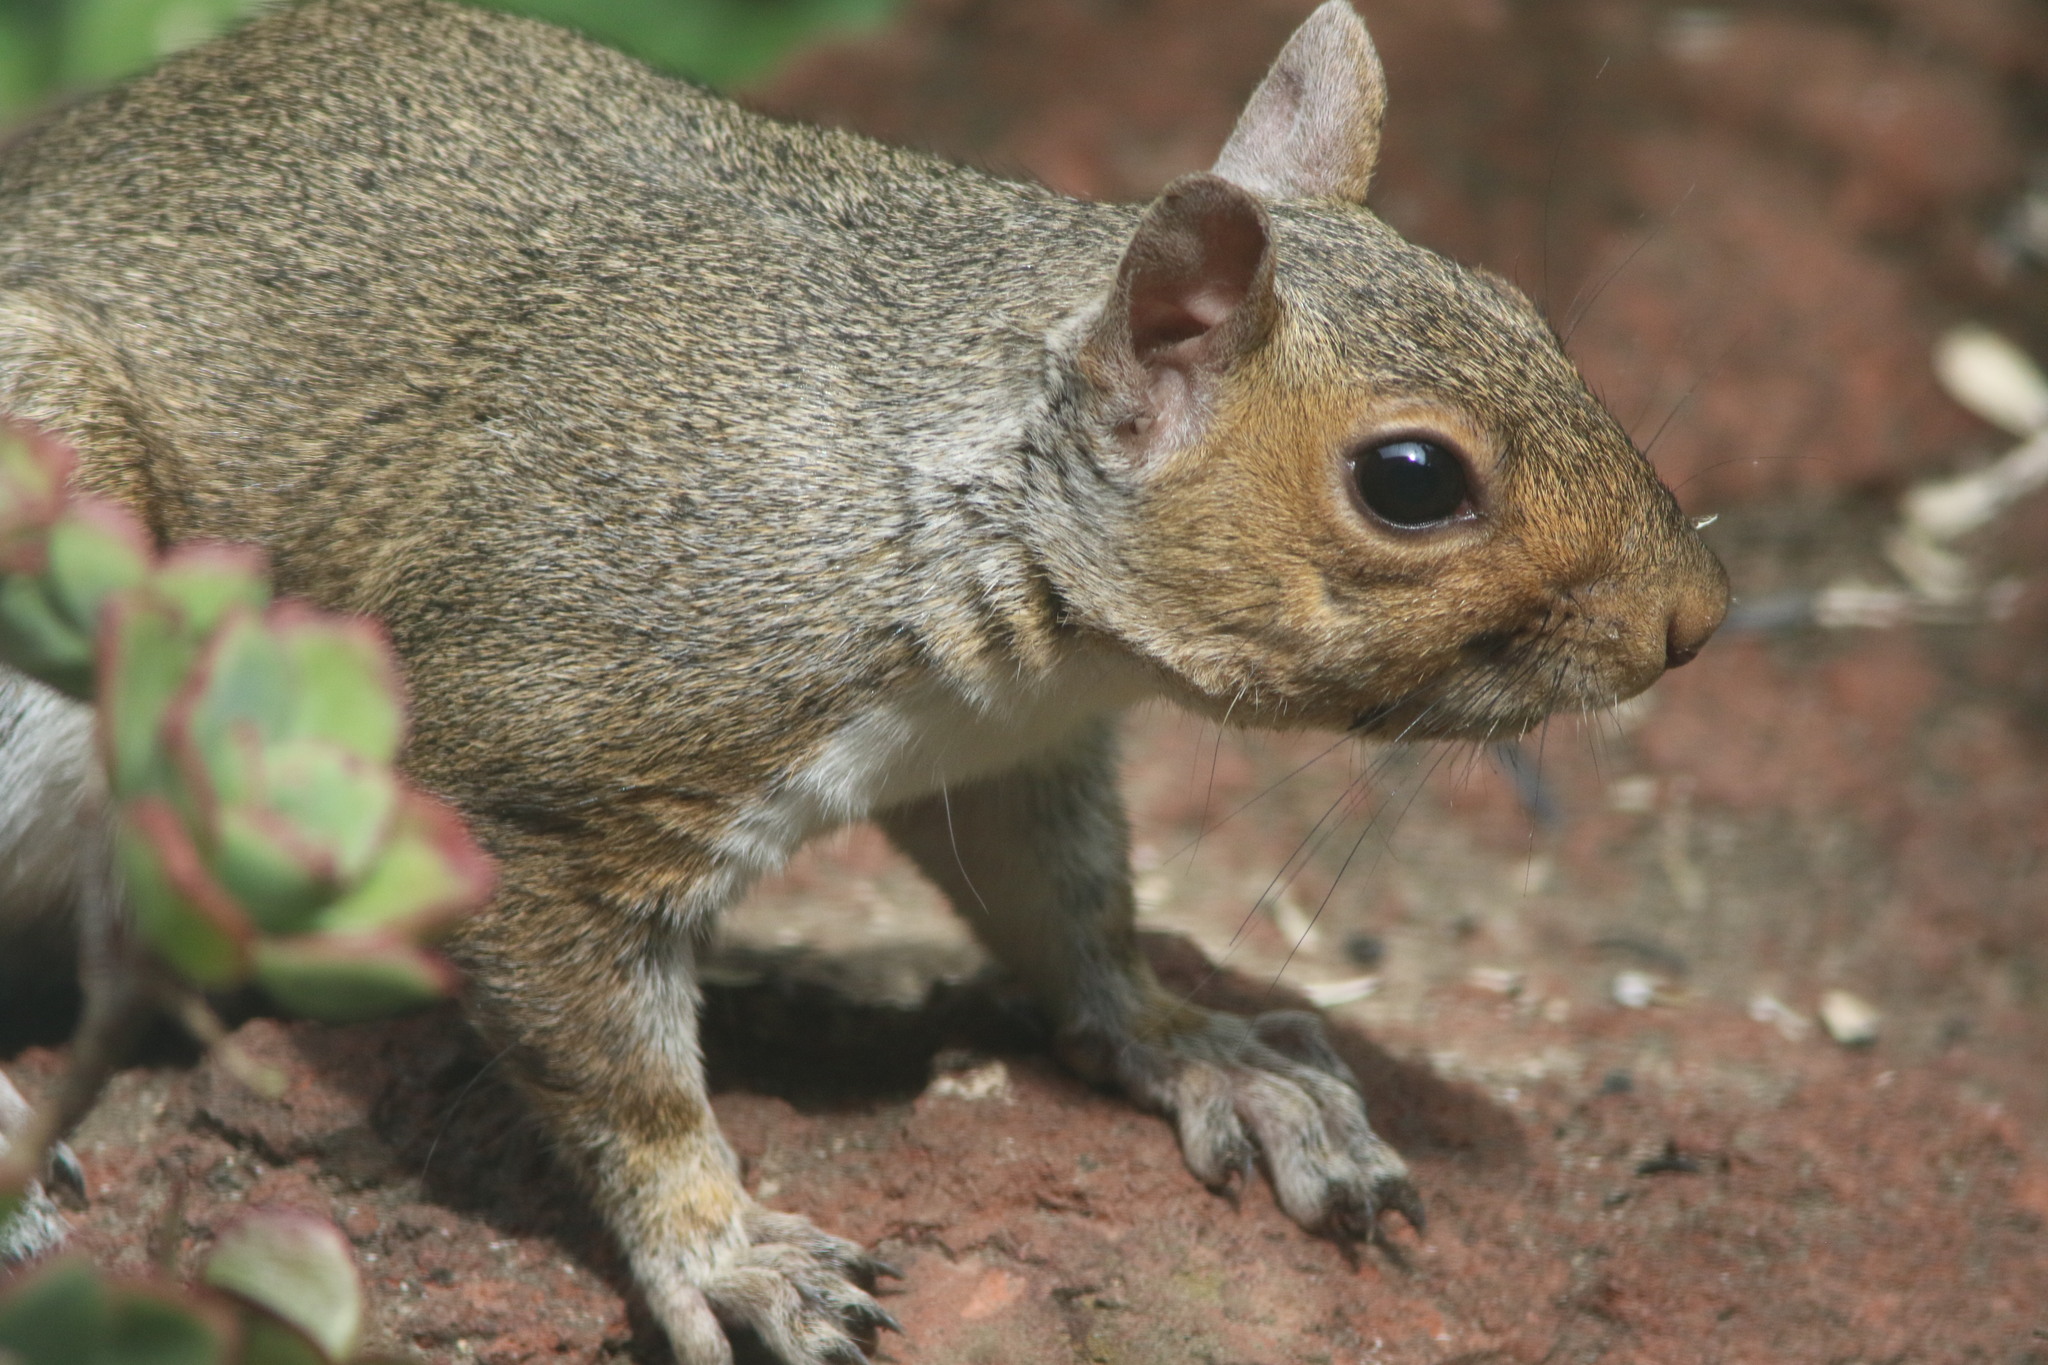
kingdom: Animalia
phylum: Chordata
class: Mammalia
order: Rodentia
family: Sciuridae
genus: Sciurus
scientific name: Sciurus carolinensis
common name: Eastern gray squirrel
